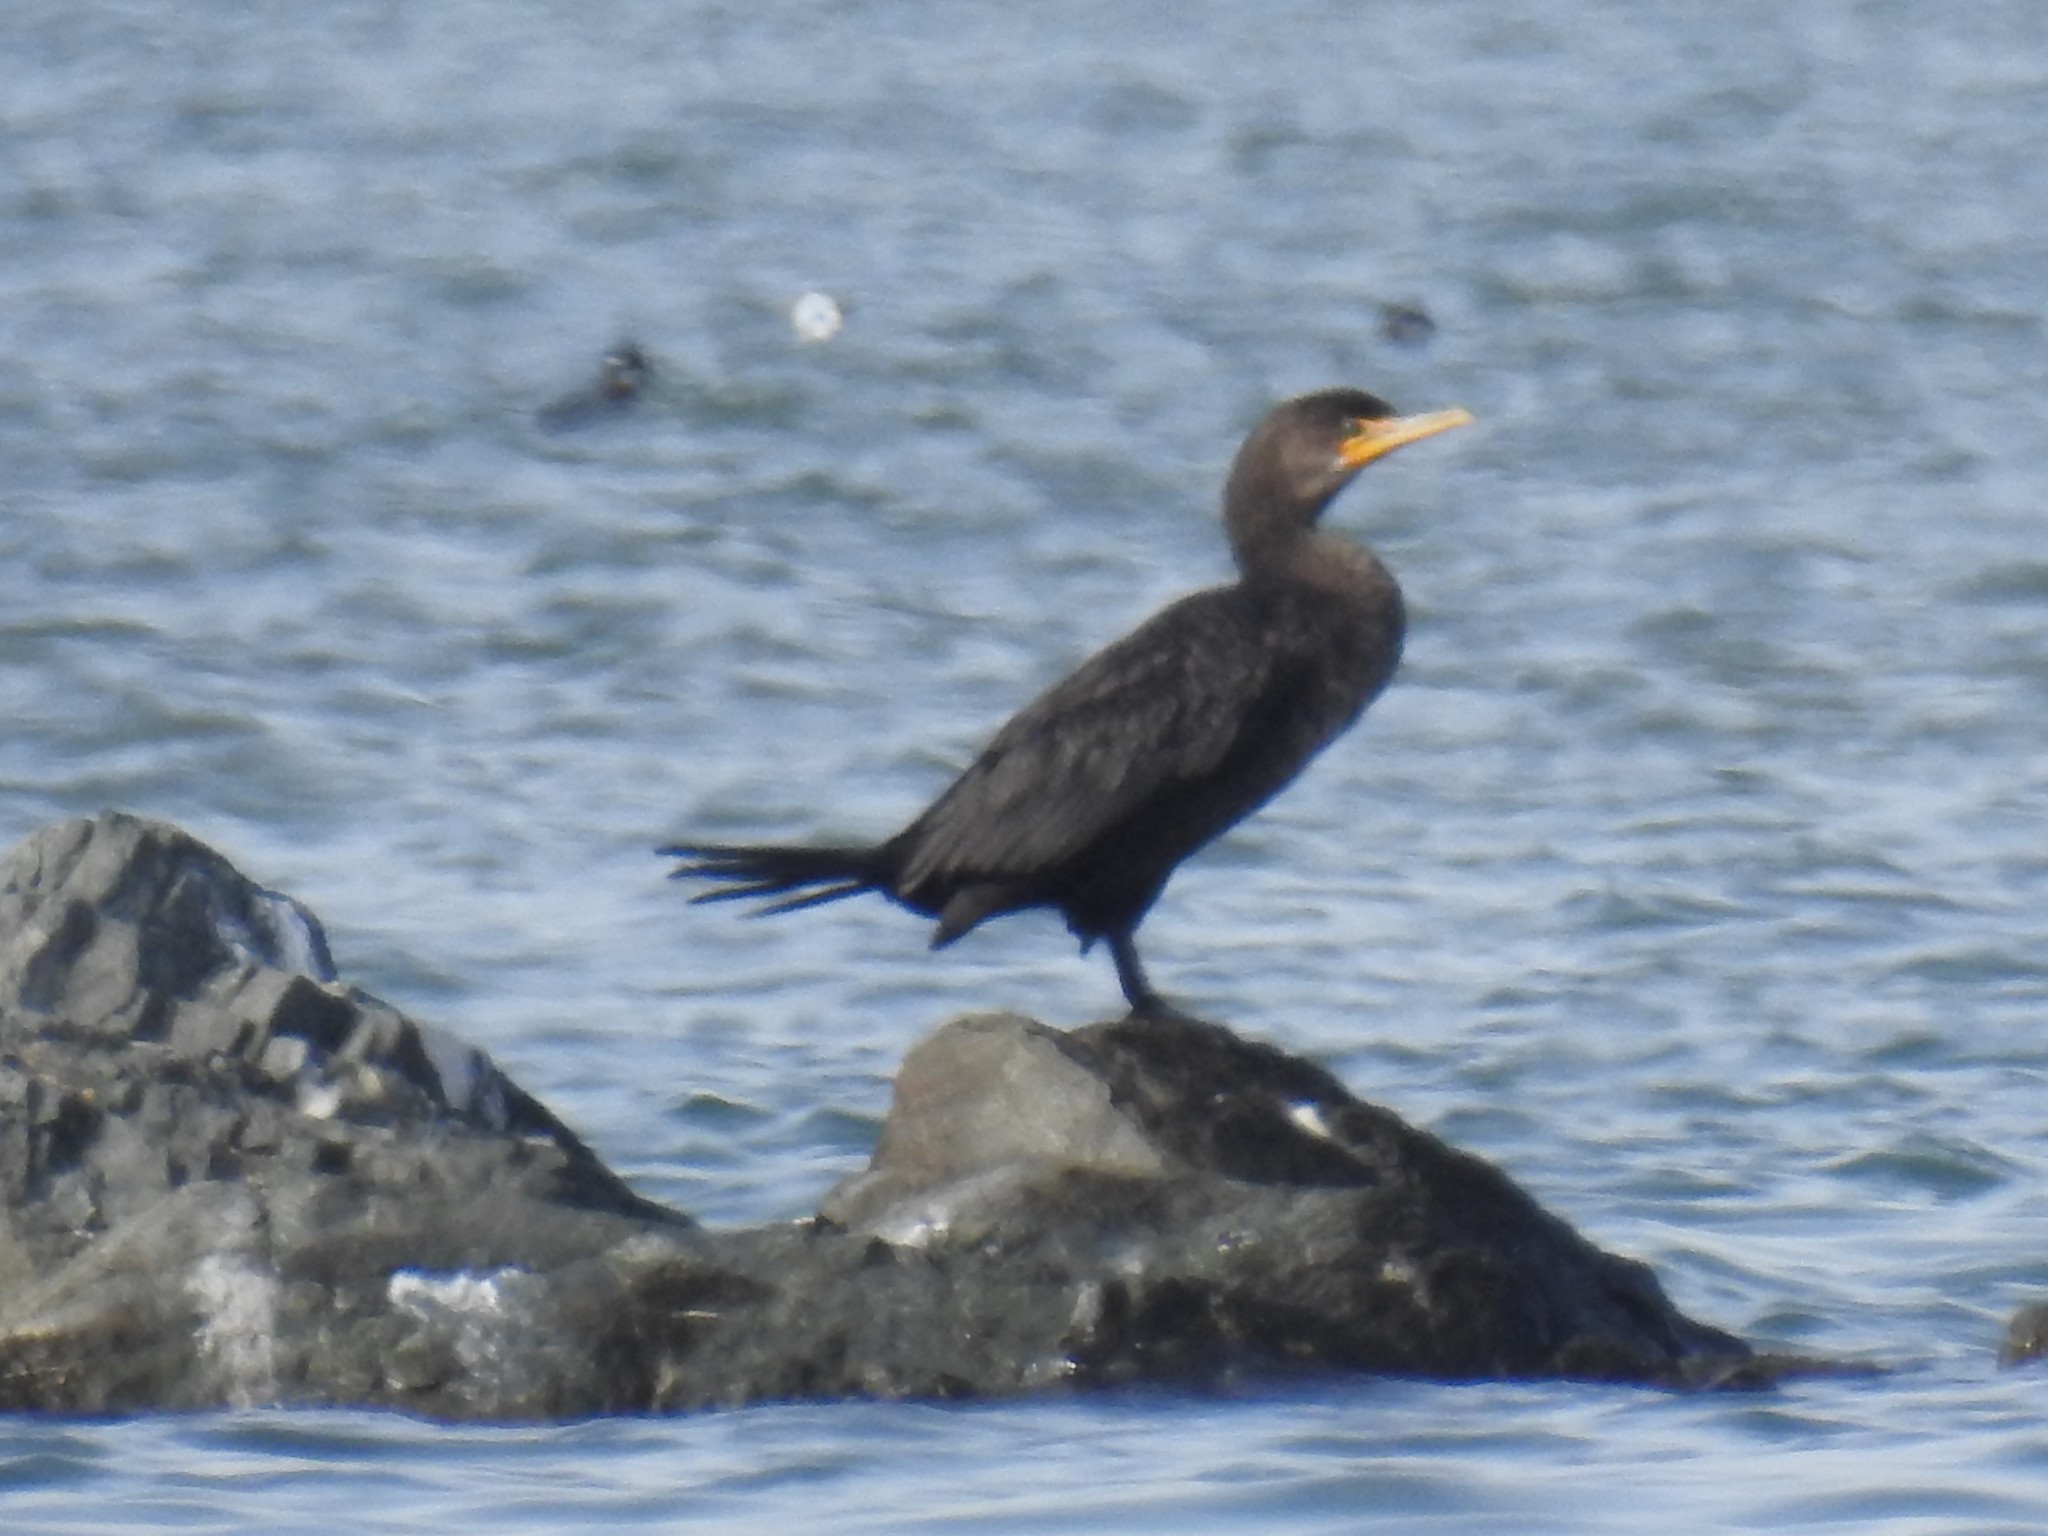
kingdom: Animalia
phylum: Chordata
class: Aves
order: Suliformes
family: Phalacrocoracidae
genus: Phalacrocorax
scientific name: Phalacrocorax auritus
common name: Double-crested cormorant
